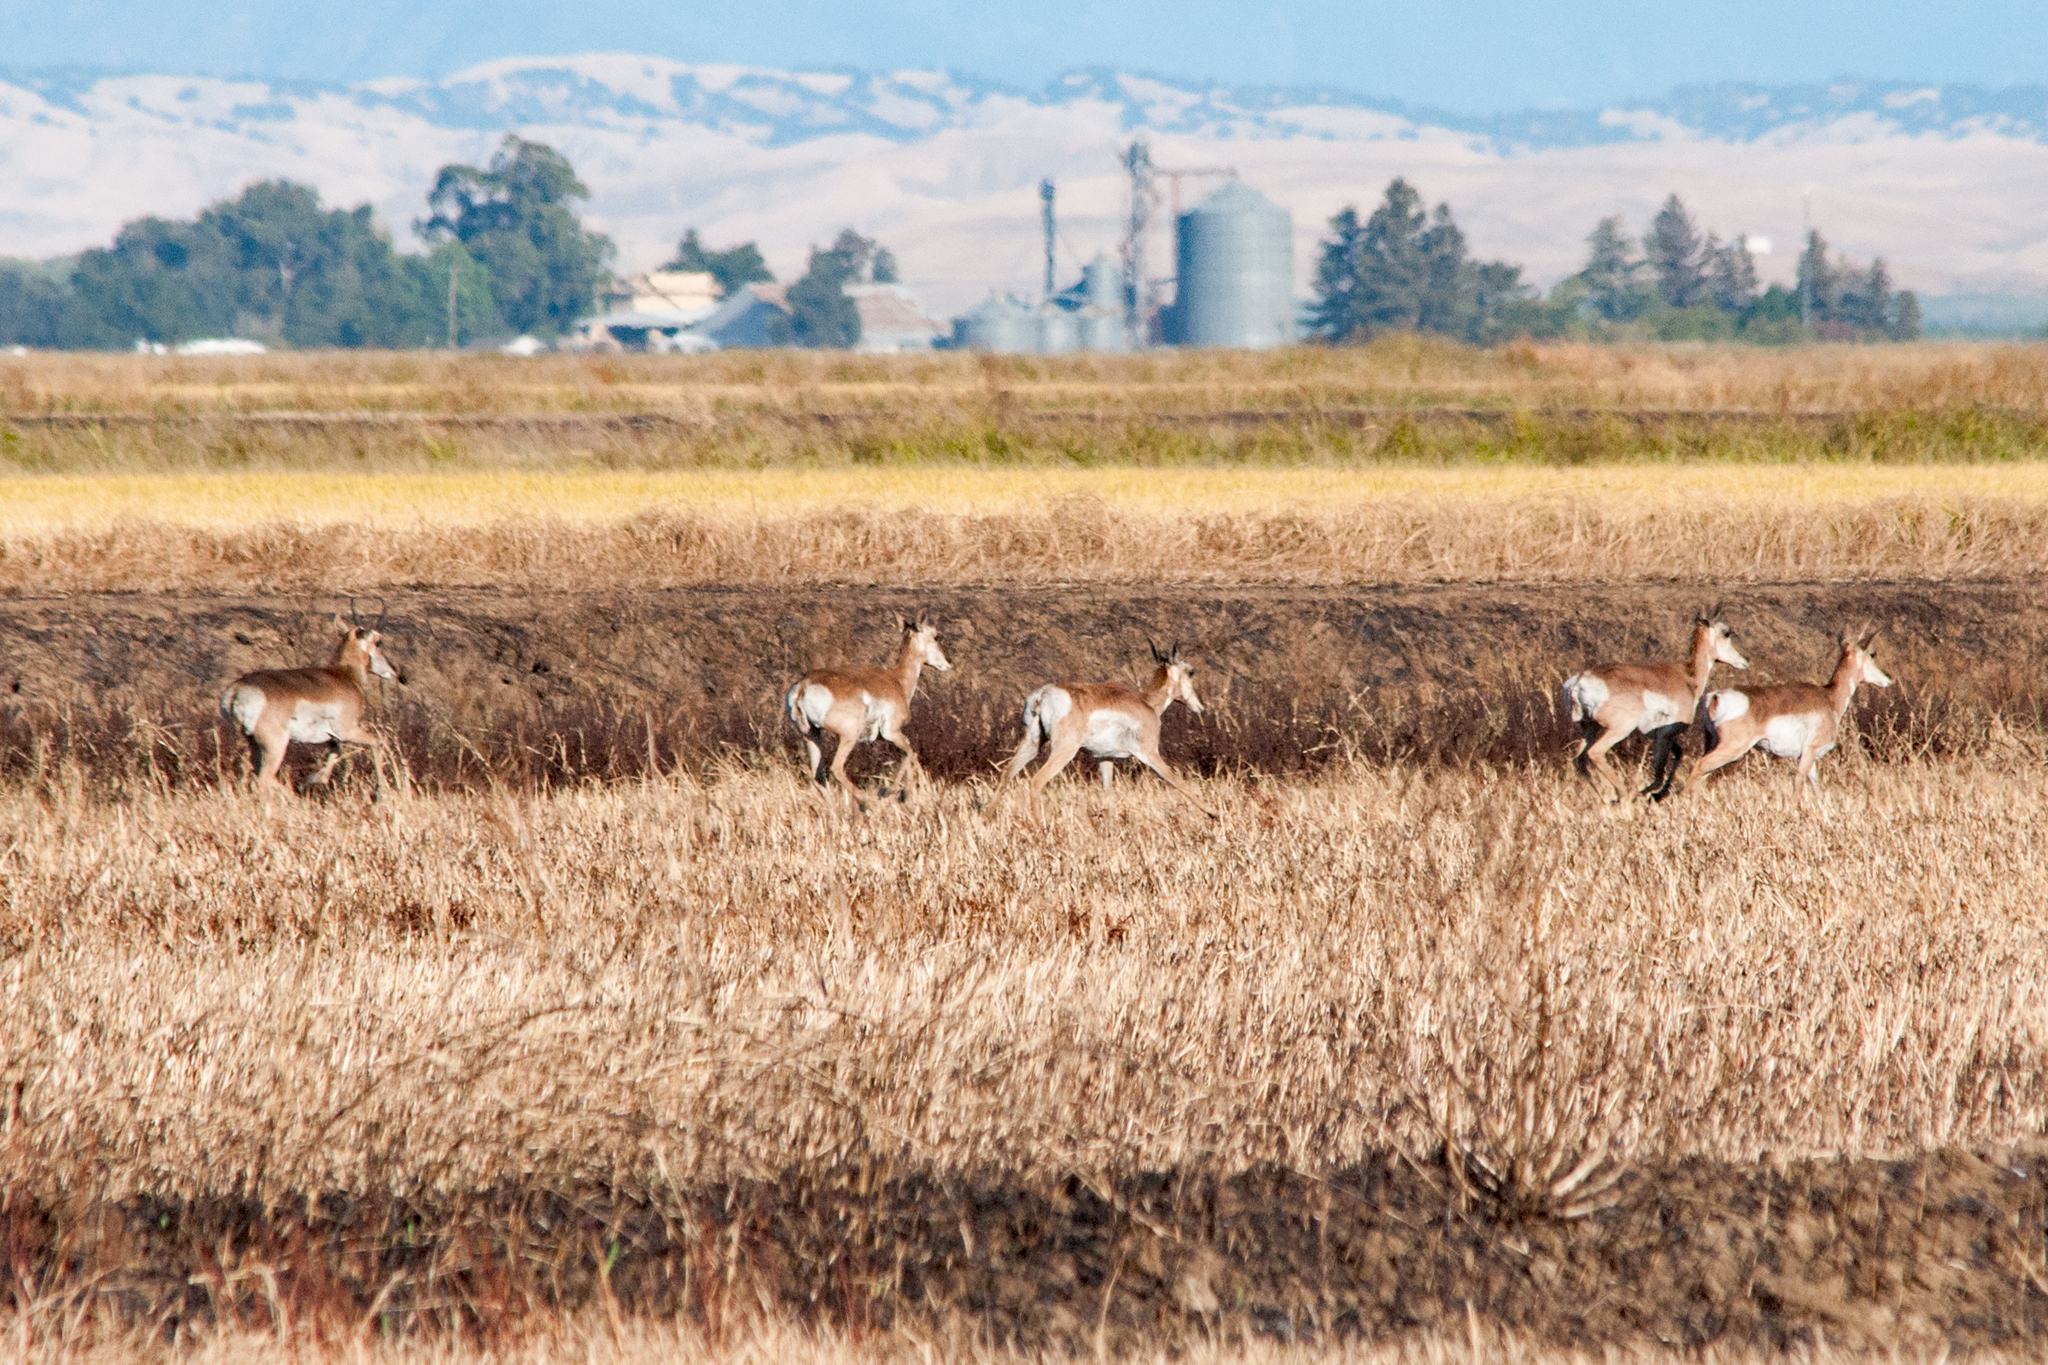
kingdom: Animalia
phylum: Chordata
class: Mammalia
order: Artiodactyla
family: Antilocapridae
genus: Antilocapra
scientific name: Antilocapra americana
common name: Pronghorn
